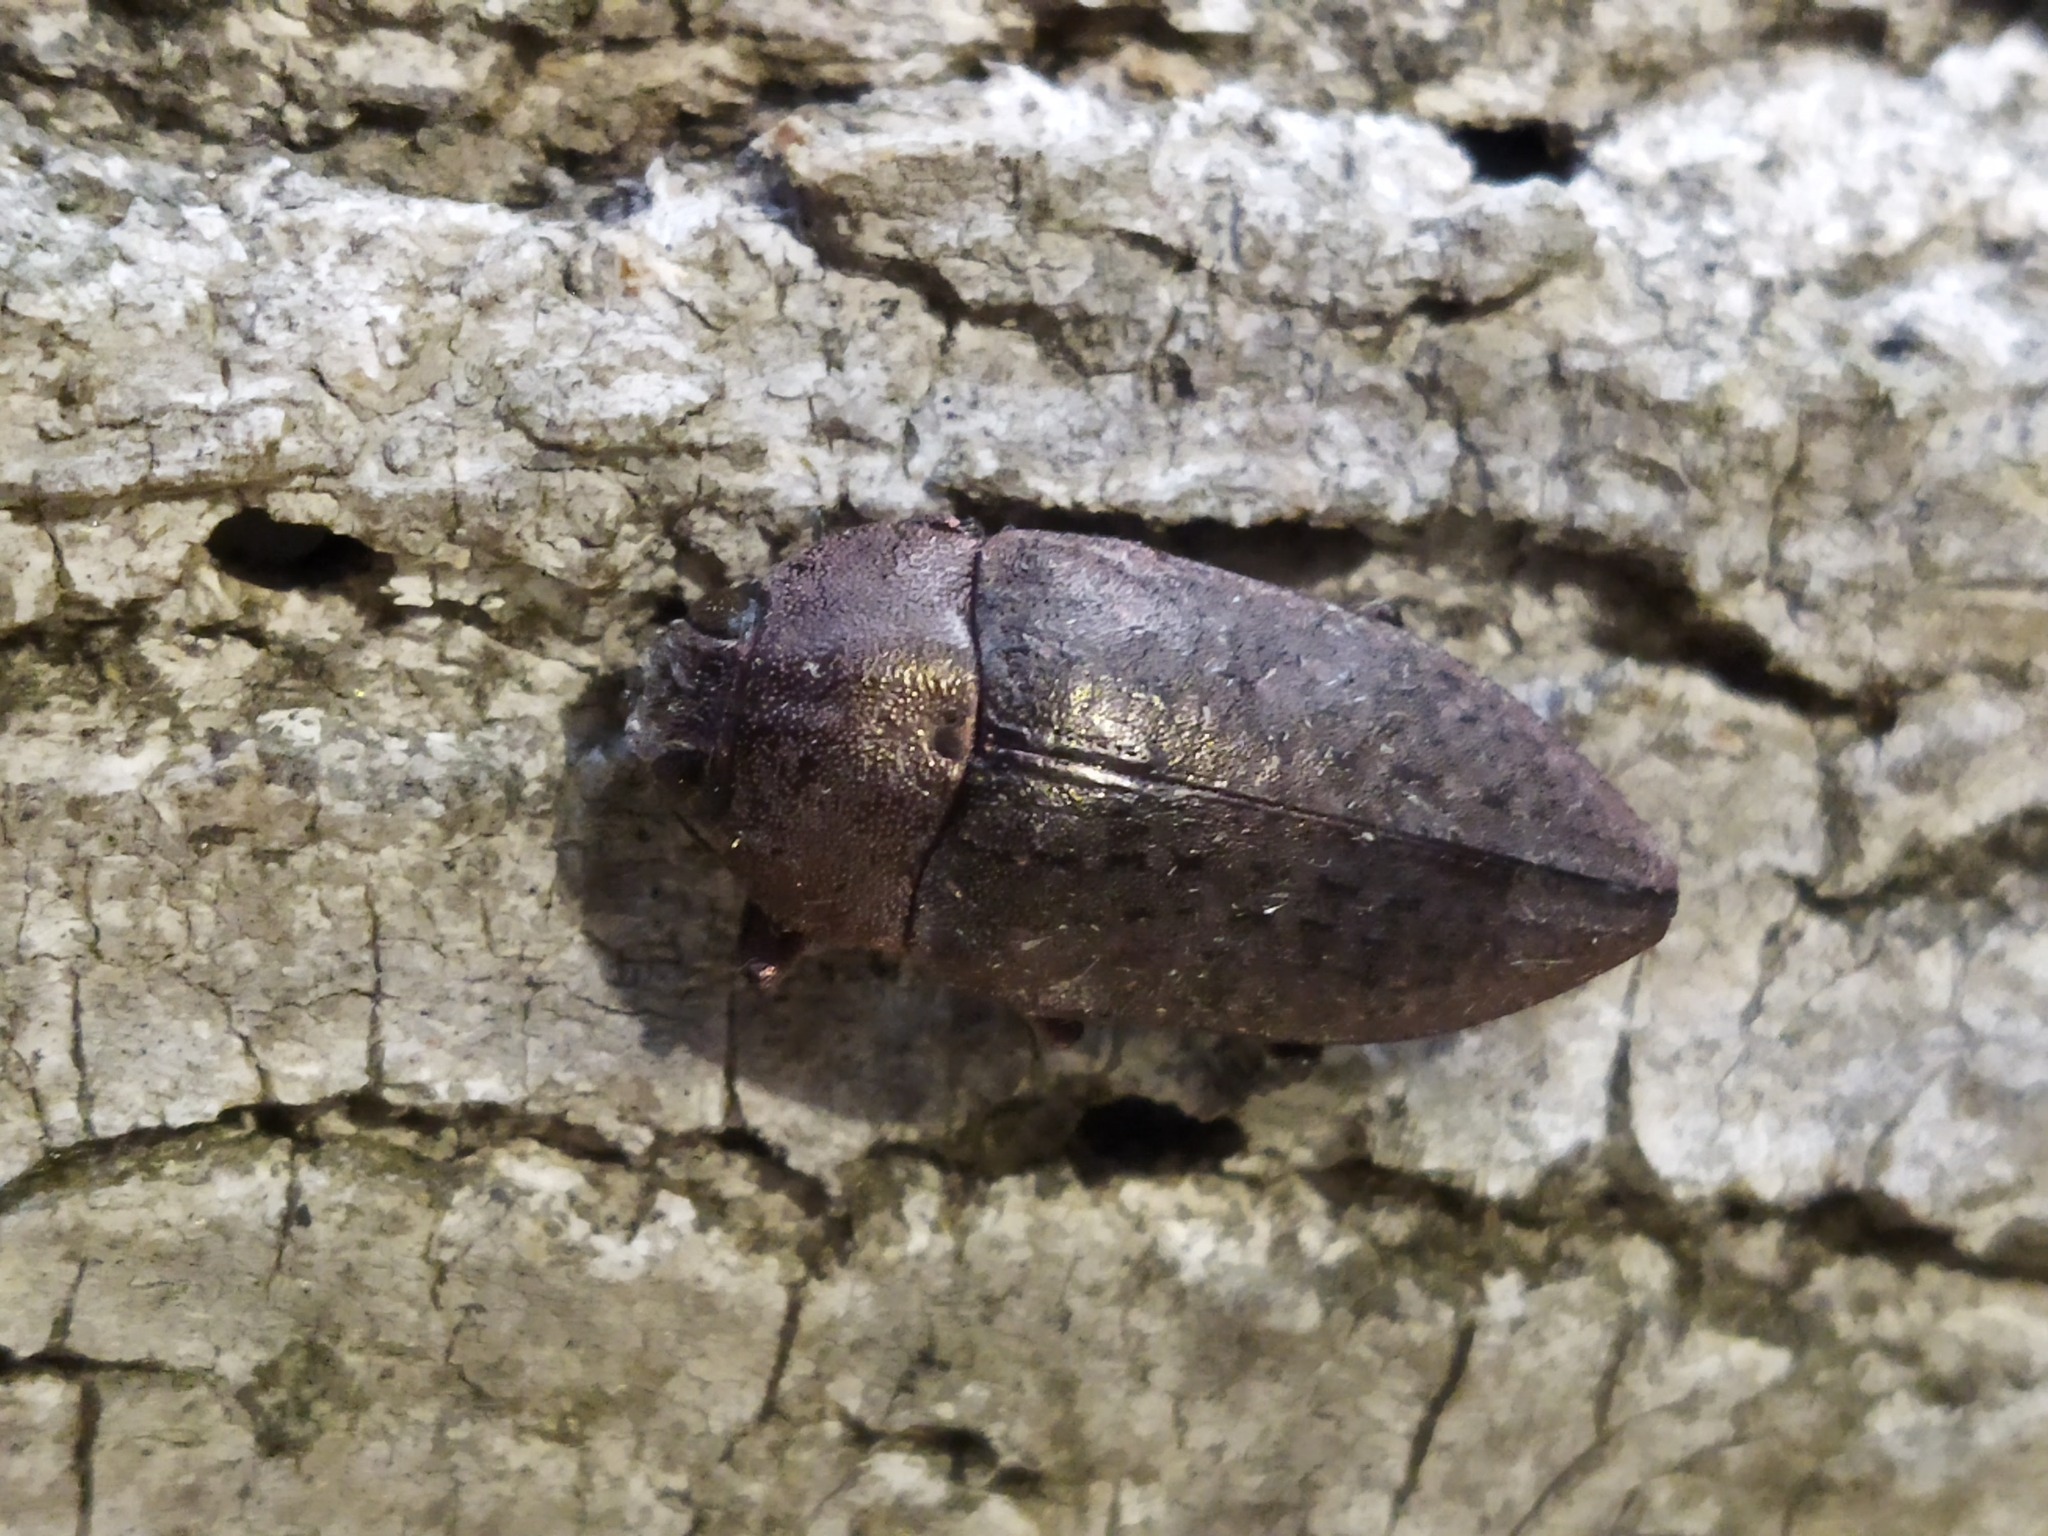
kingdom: Animalia
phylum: Arthropoda
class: Insecta
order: Coleoptera
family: Buprestidae
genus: Perotis
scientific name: Perotis lugubris
